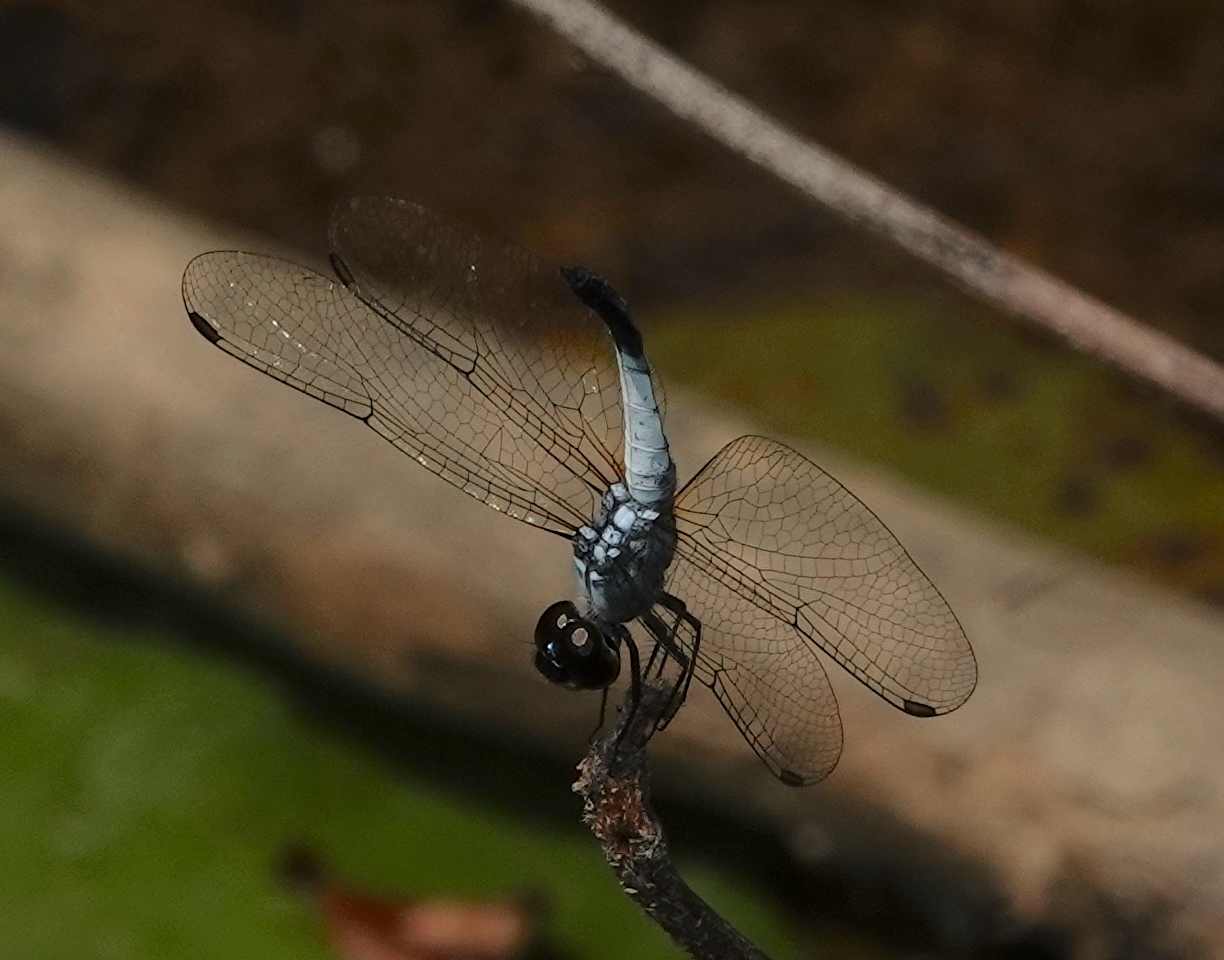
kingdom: Animalia
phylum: Arthropoda
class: Insecta
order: Odonata
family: Libellulidae
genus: Brachydiplax
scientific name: Brachydiplax farinosa
